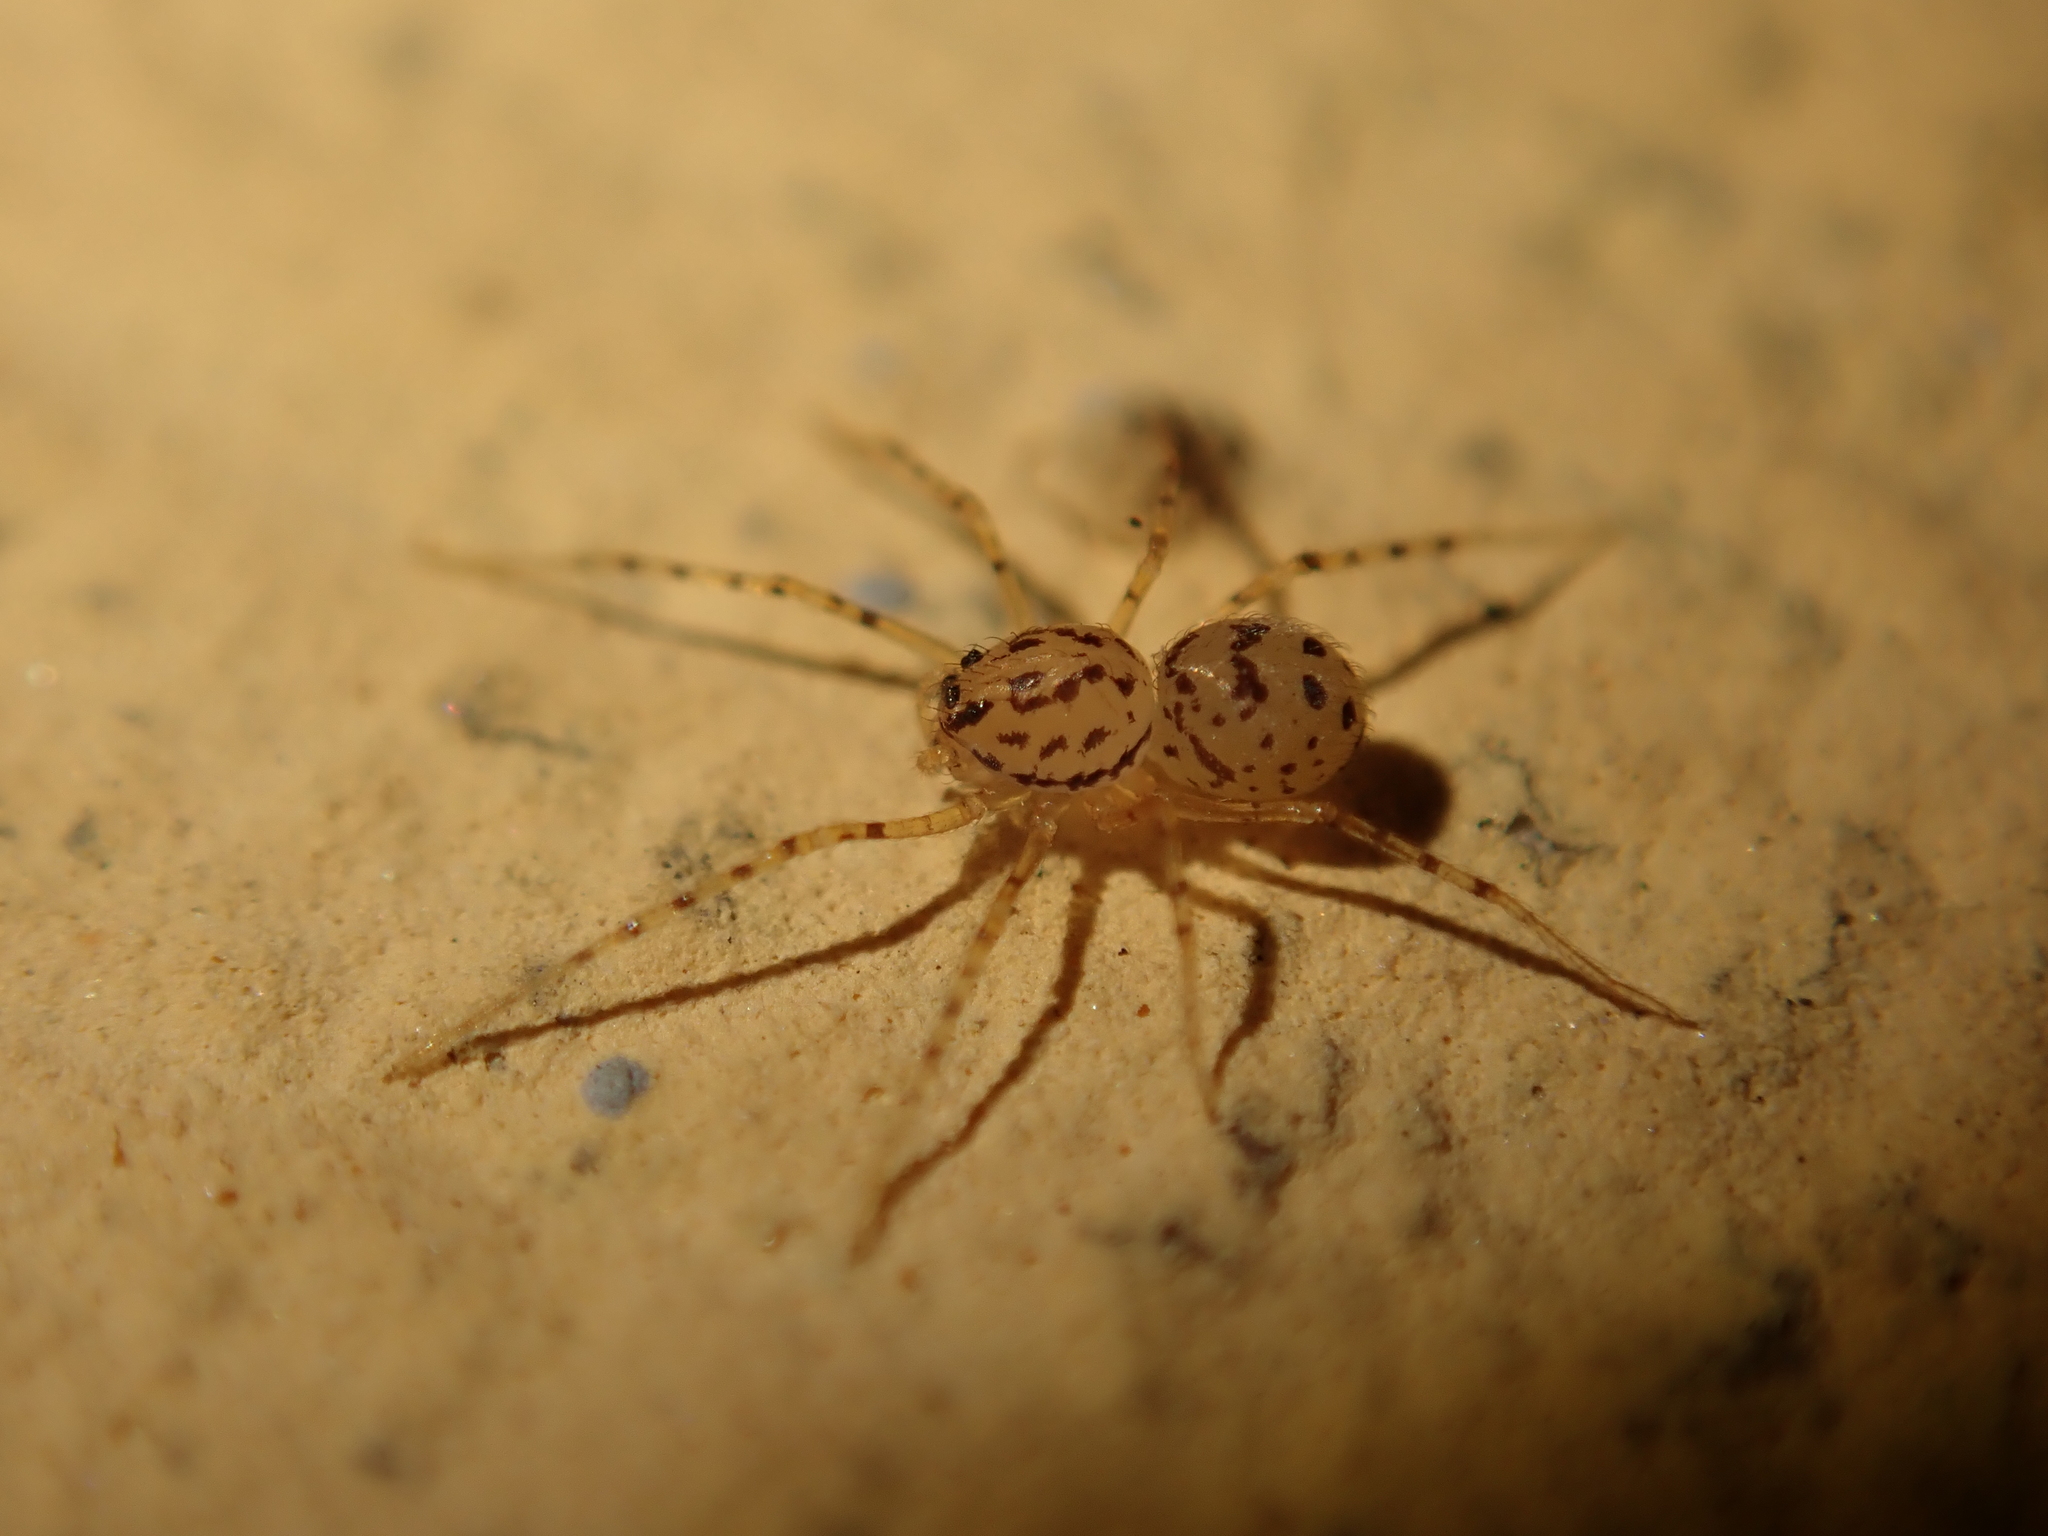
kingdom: Animalia
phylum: Arthropoda
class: Arachnida
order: Araneae
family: Scytodidae
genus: Scytodes
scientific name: Scytodes thoracica
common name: Spitting spider
